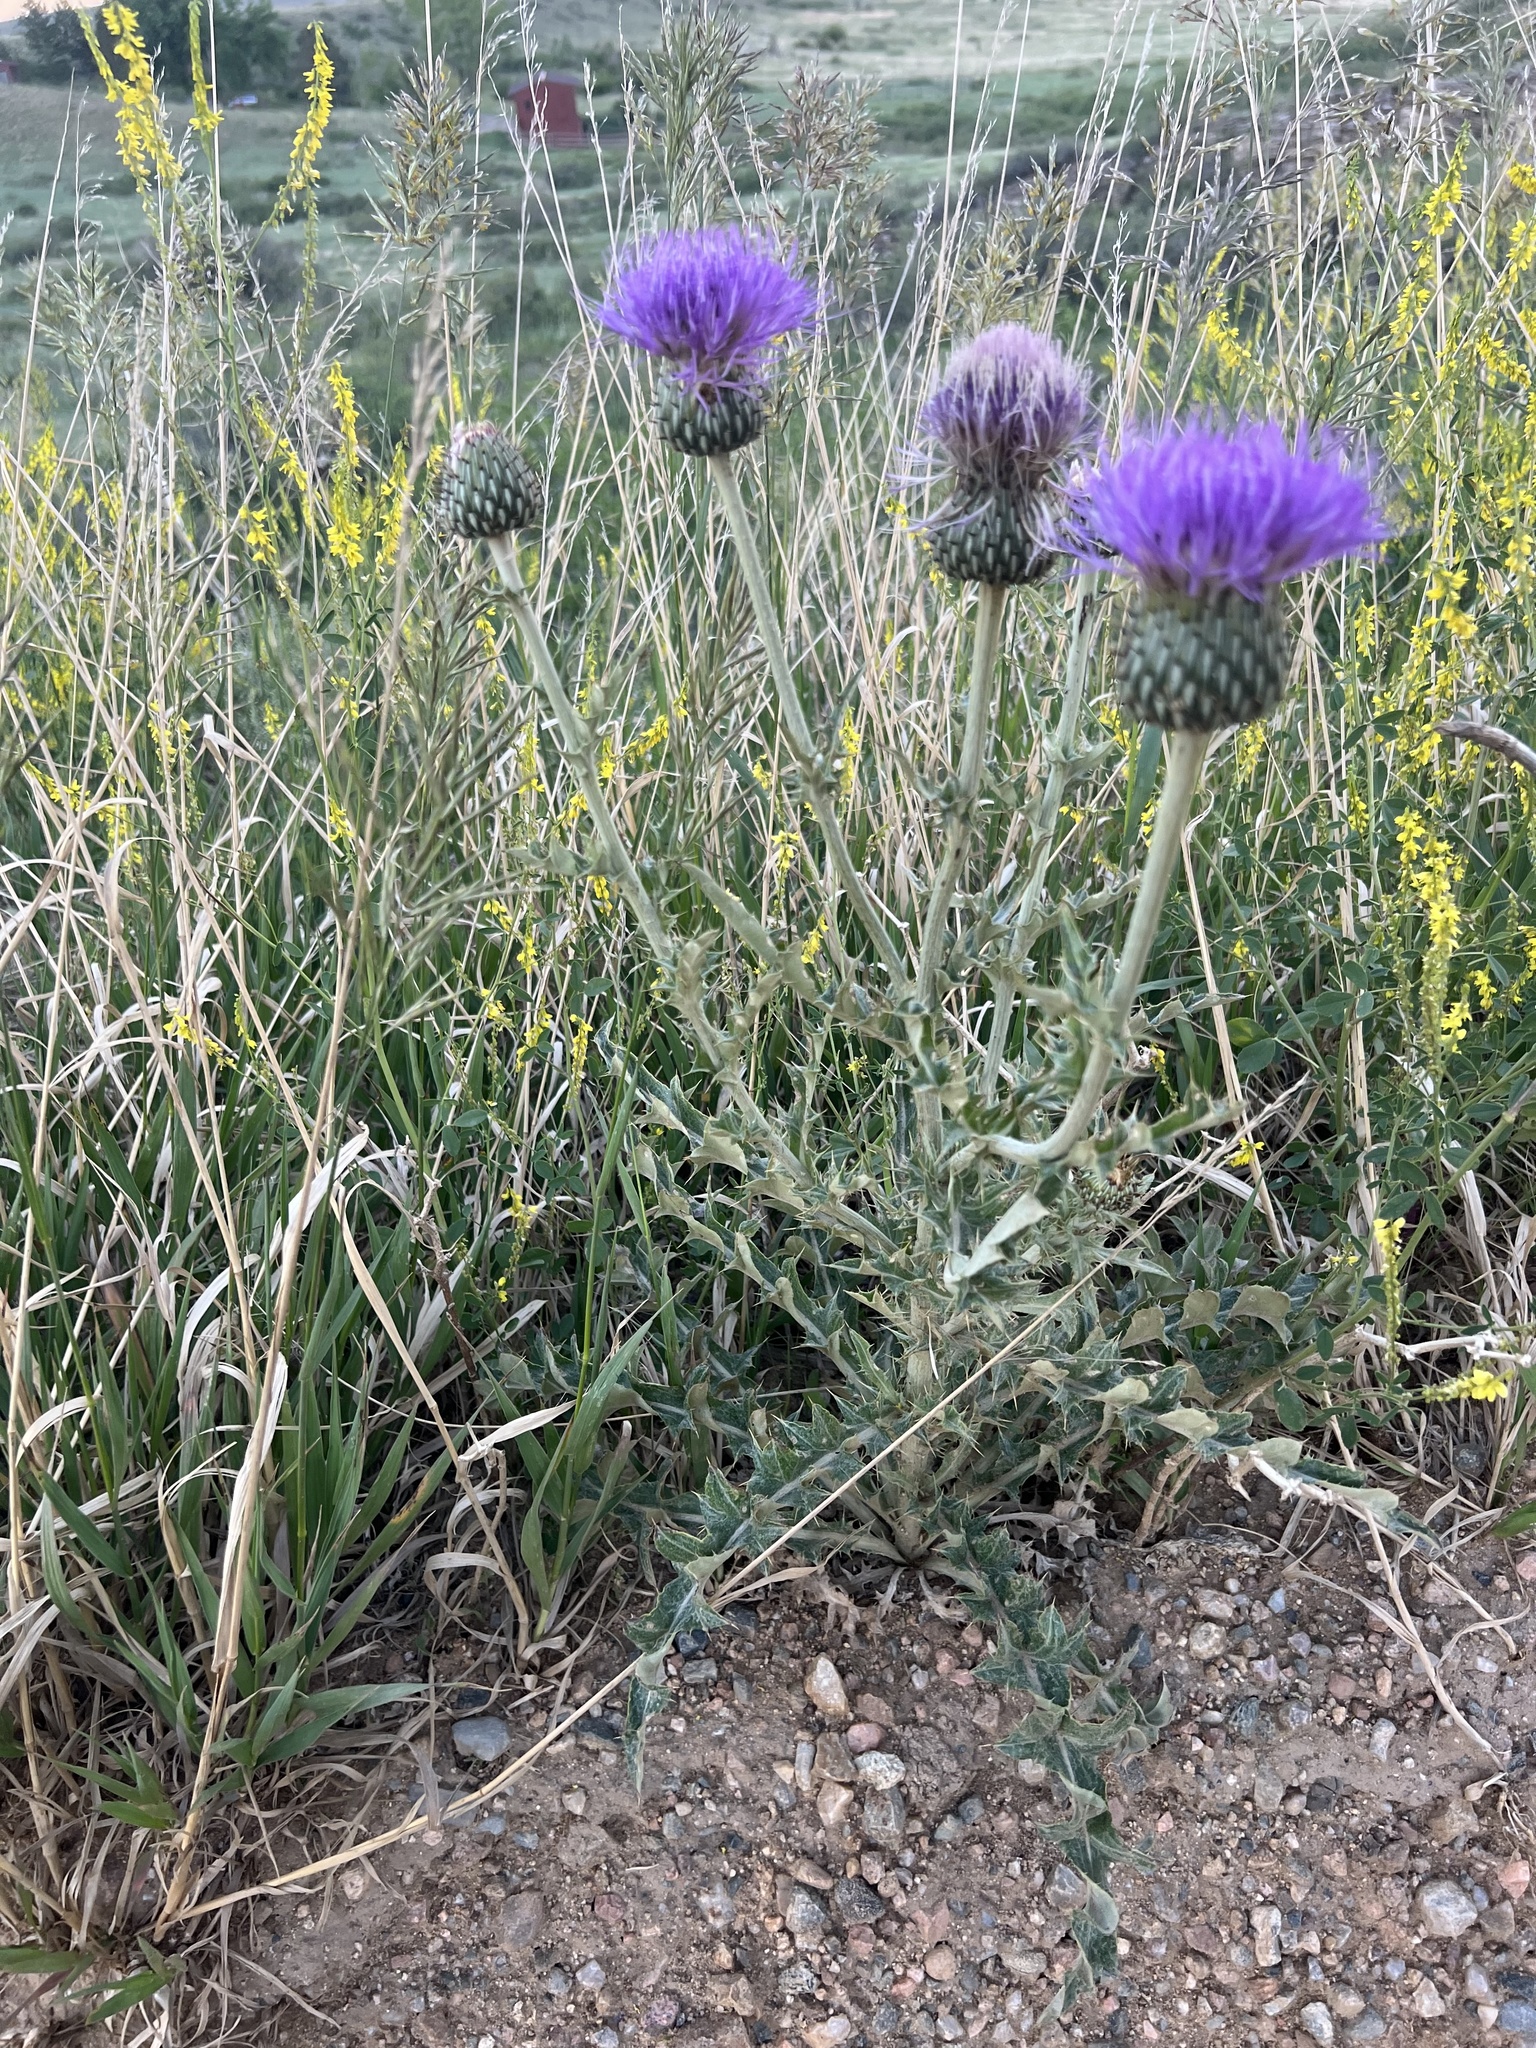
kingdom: Plantae
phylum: Tracheophyta
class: Magnoliopsida
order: Asterales
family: Asteraceae
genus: Cirsium
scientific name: Cirsium undulatum
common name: Pasture thistle
